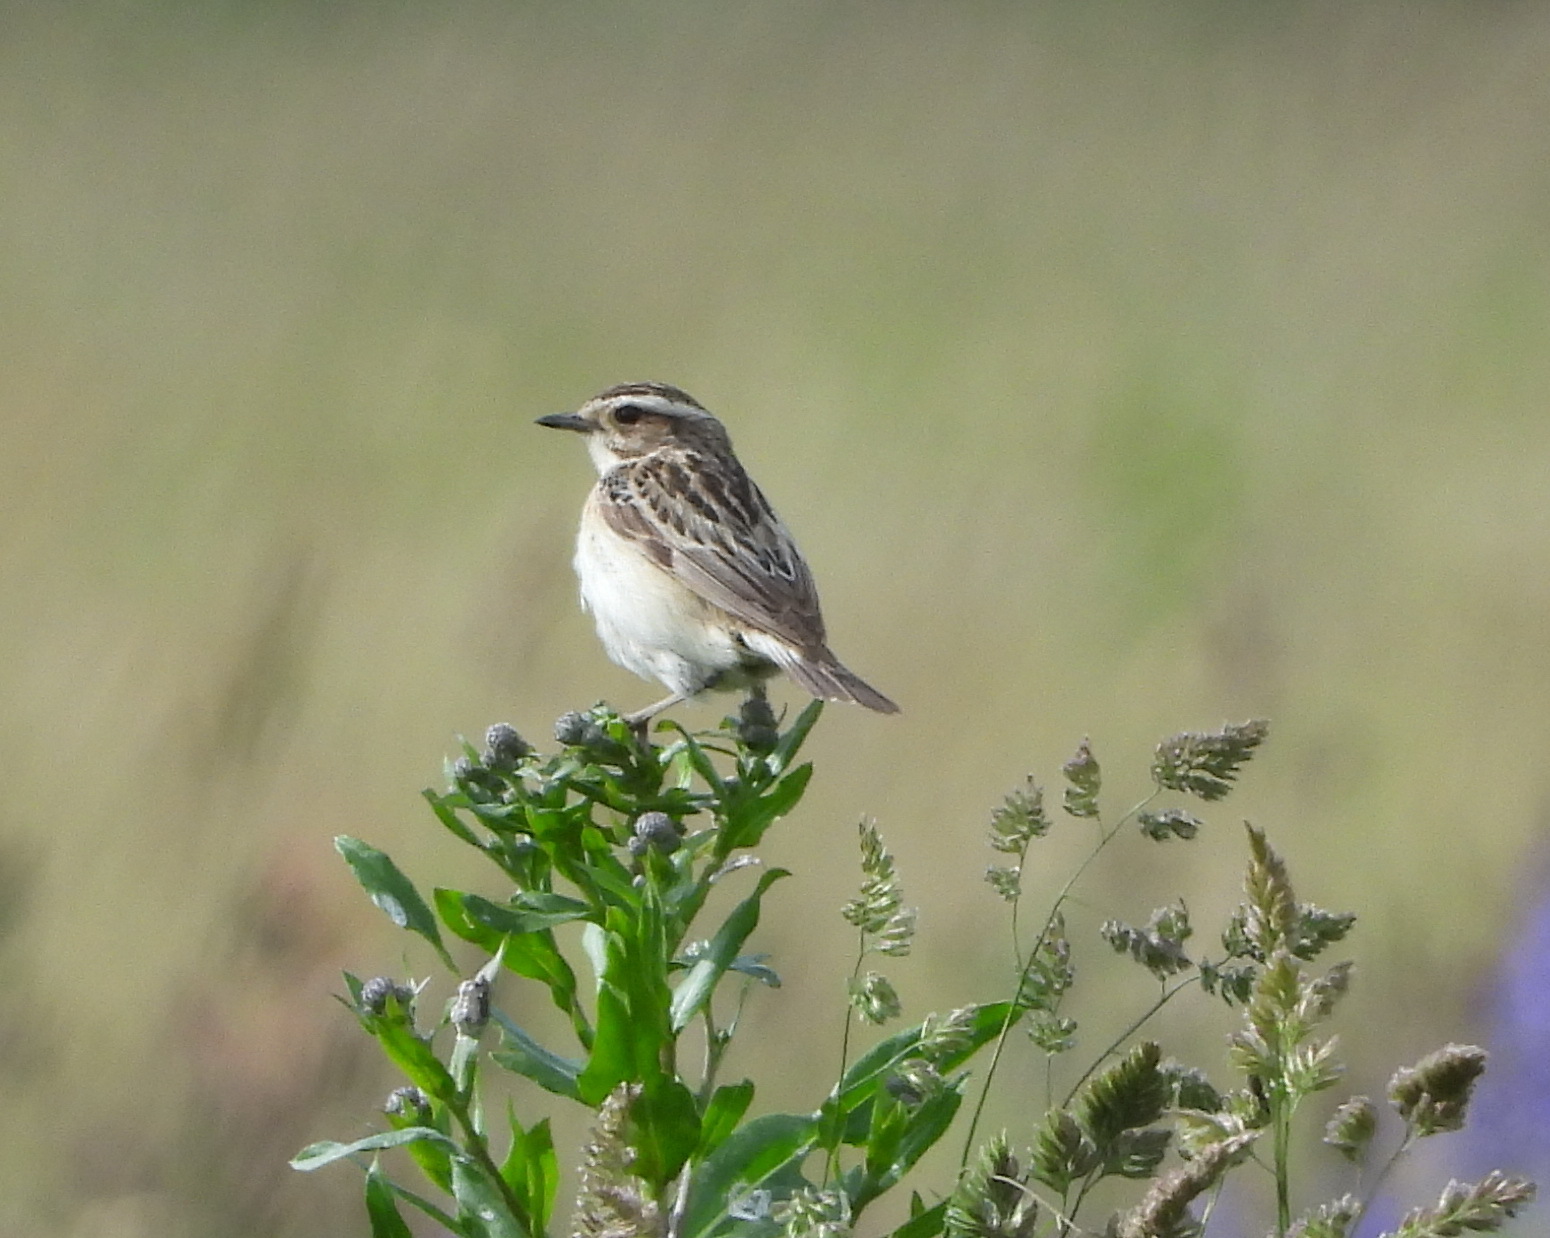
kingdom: Animalia
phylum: Chordata
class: Aves
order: Passeriformes
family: Muscicapidae
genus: Saxicola
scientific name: Saxicola rubetra
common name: Whinchat
